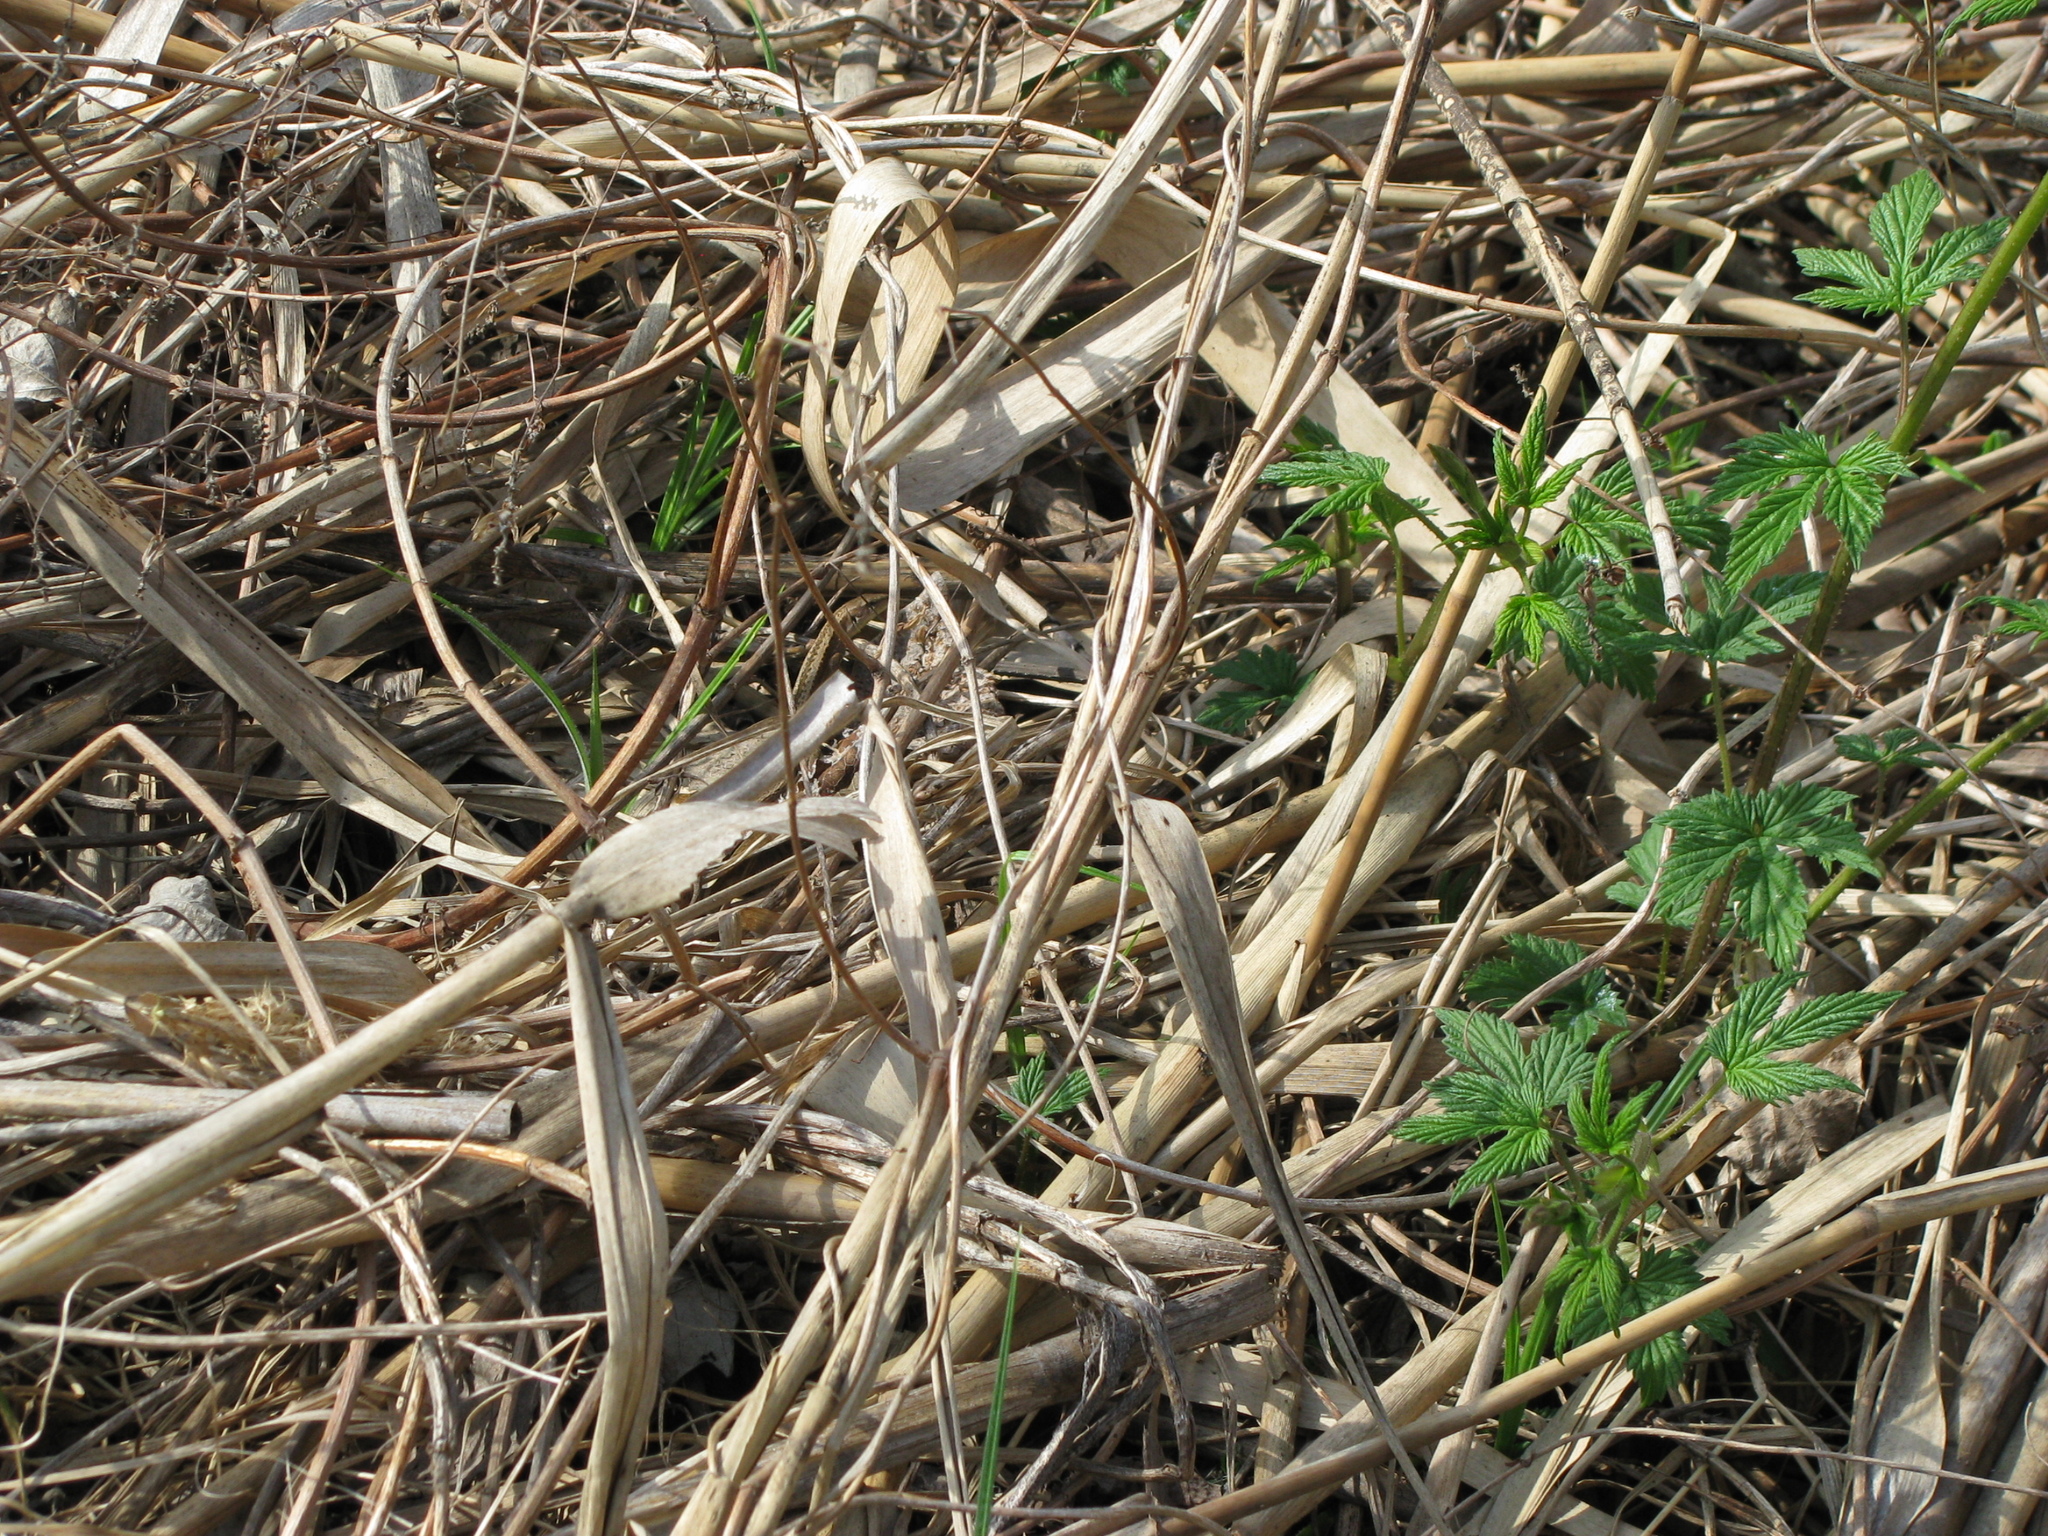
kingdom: Animalia
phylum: Chordata
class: Squamata
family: Lacertidae
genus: Darevskia
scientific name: Darevskia praticola
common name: Meadow lizard
